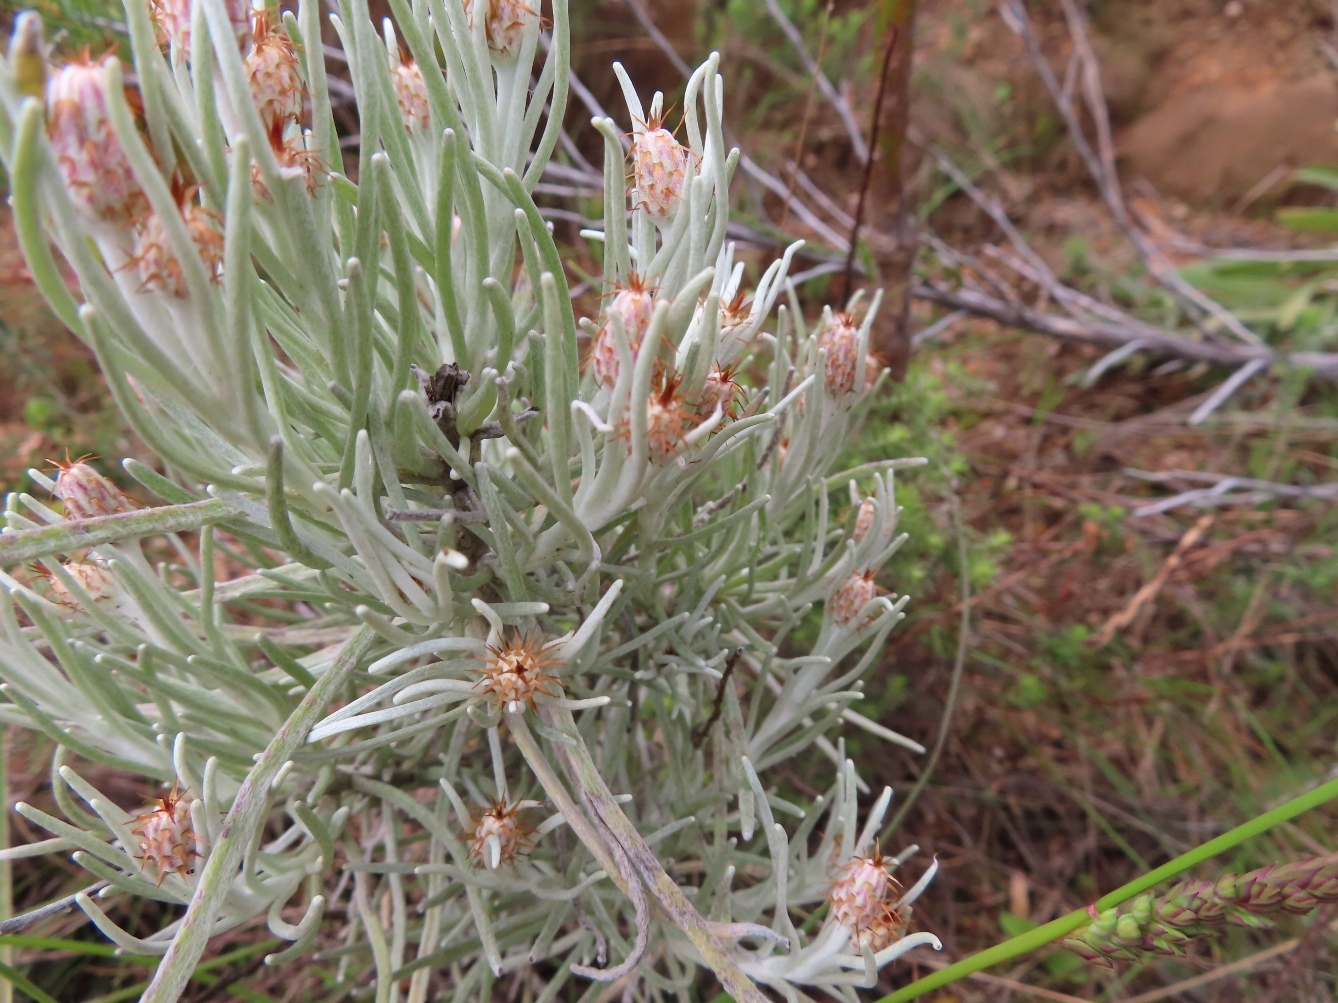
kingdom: Plantae
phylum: Tracheophyta
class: Magnoliopsida
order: Asterales
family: Asteraceae
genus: Syncarpha
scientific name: Syncarpha gnaphaloides
